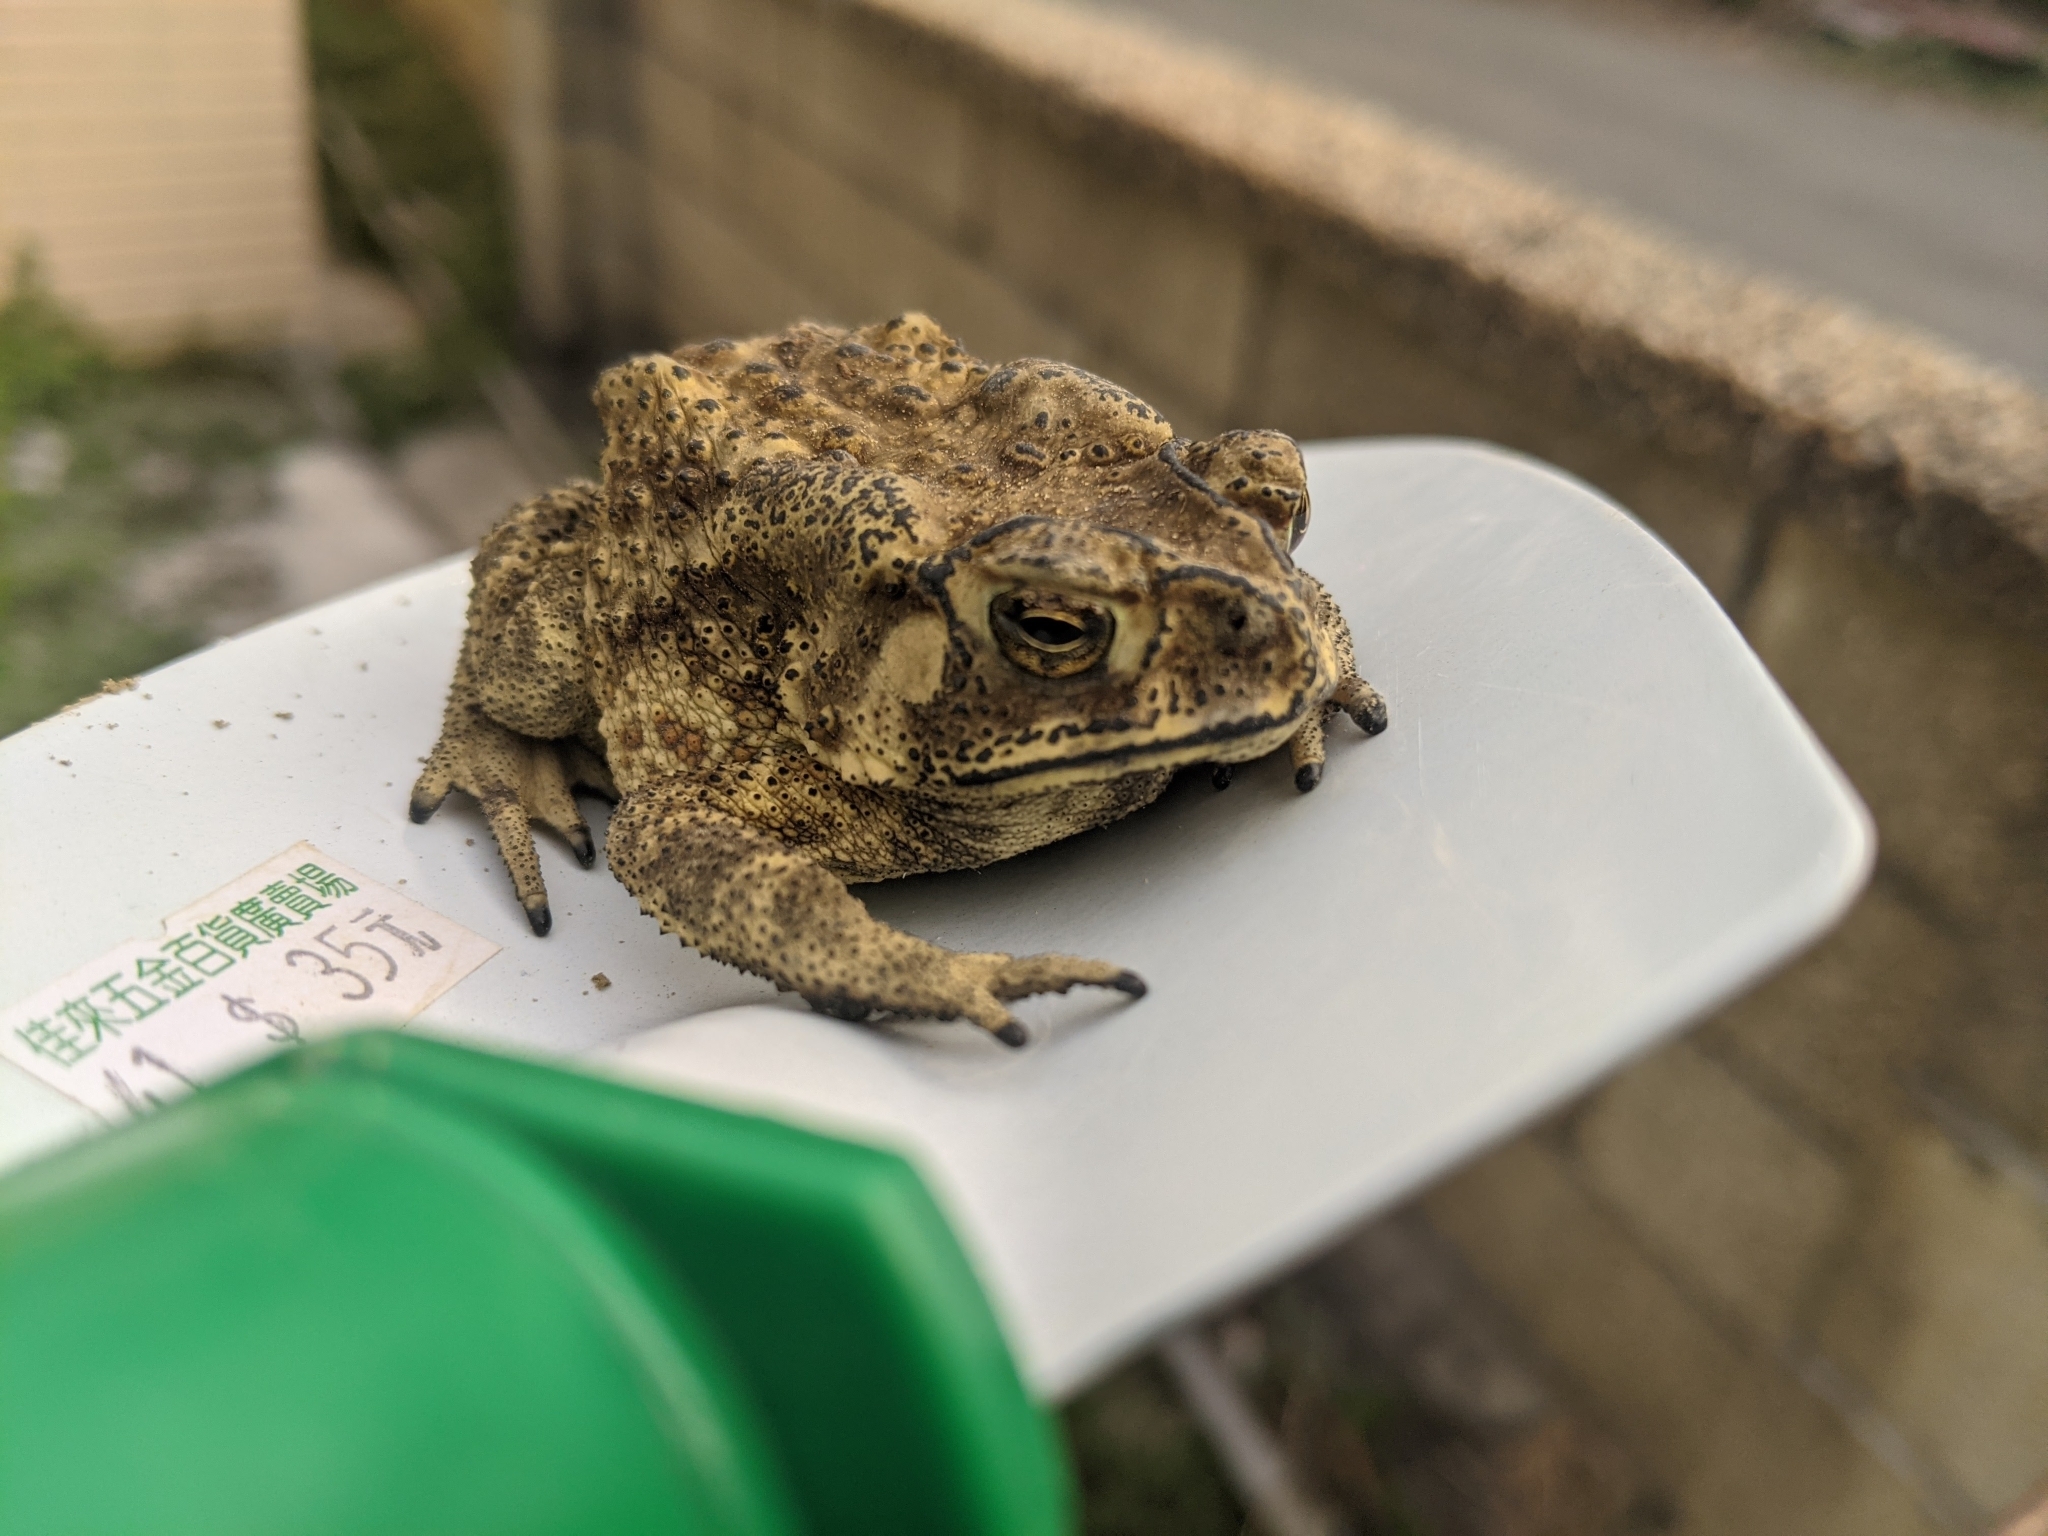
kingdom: Animalia
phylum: Chordata
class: Amphibia
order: Anura
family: Bufonidae
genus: Duttaphrynus
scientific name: Duttaphrynus melanostictus
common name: Common sunda toad
